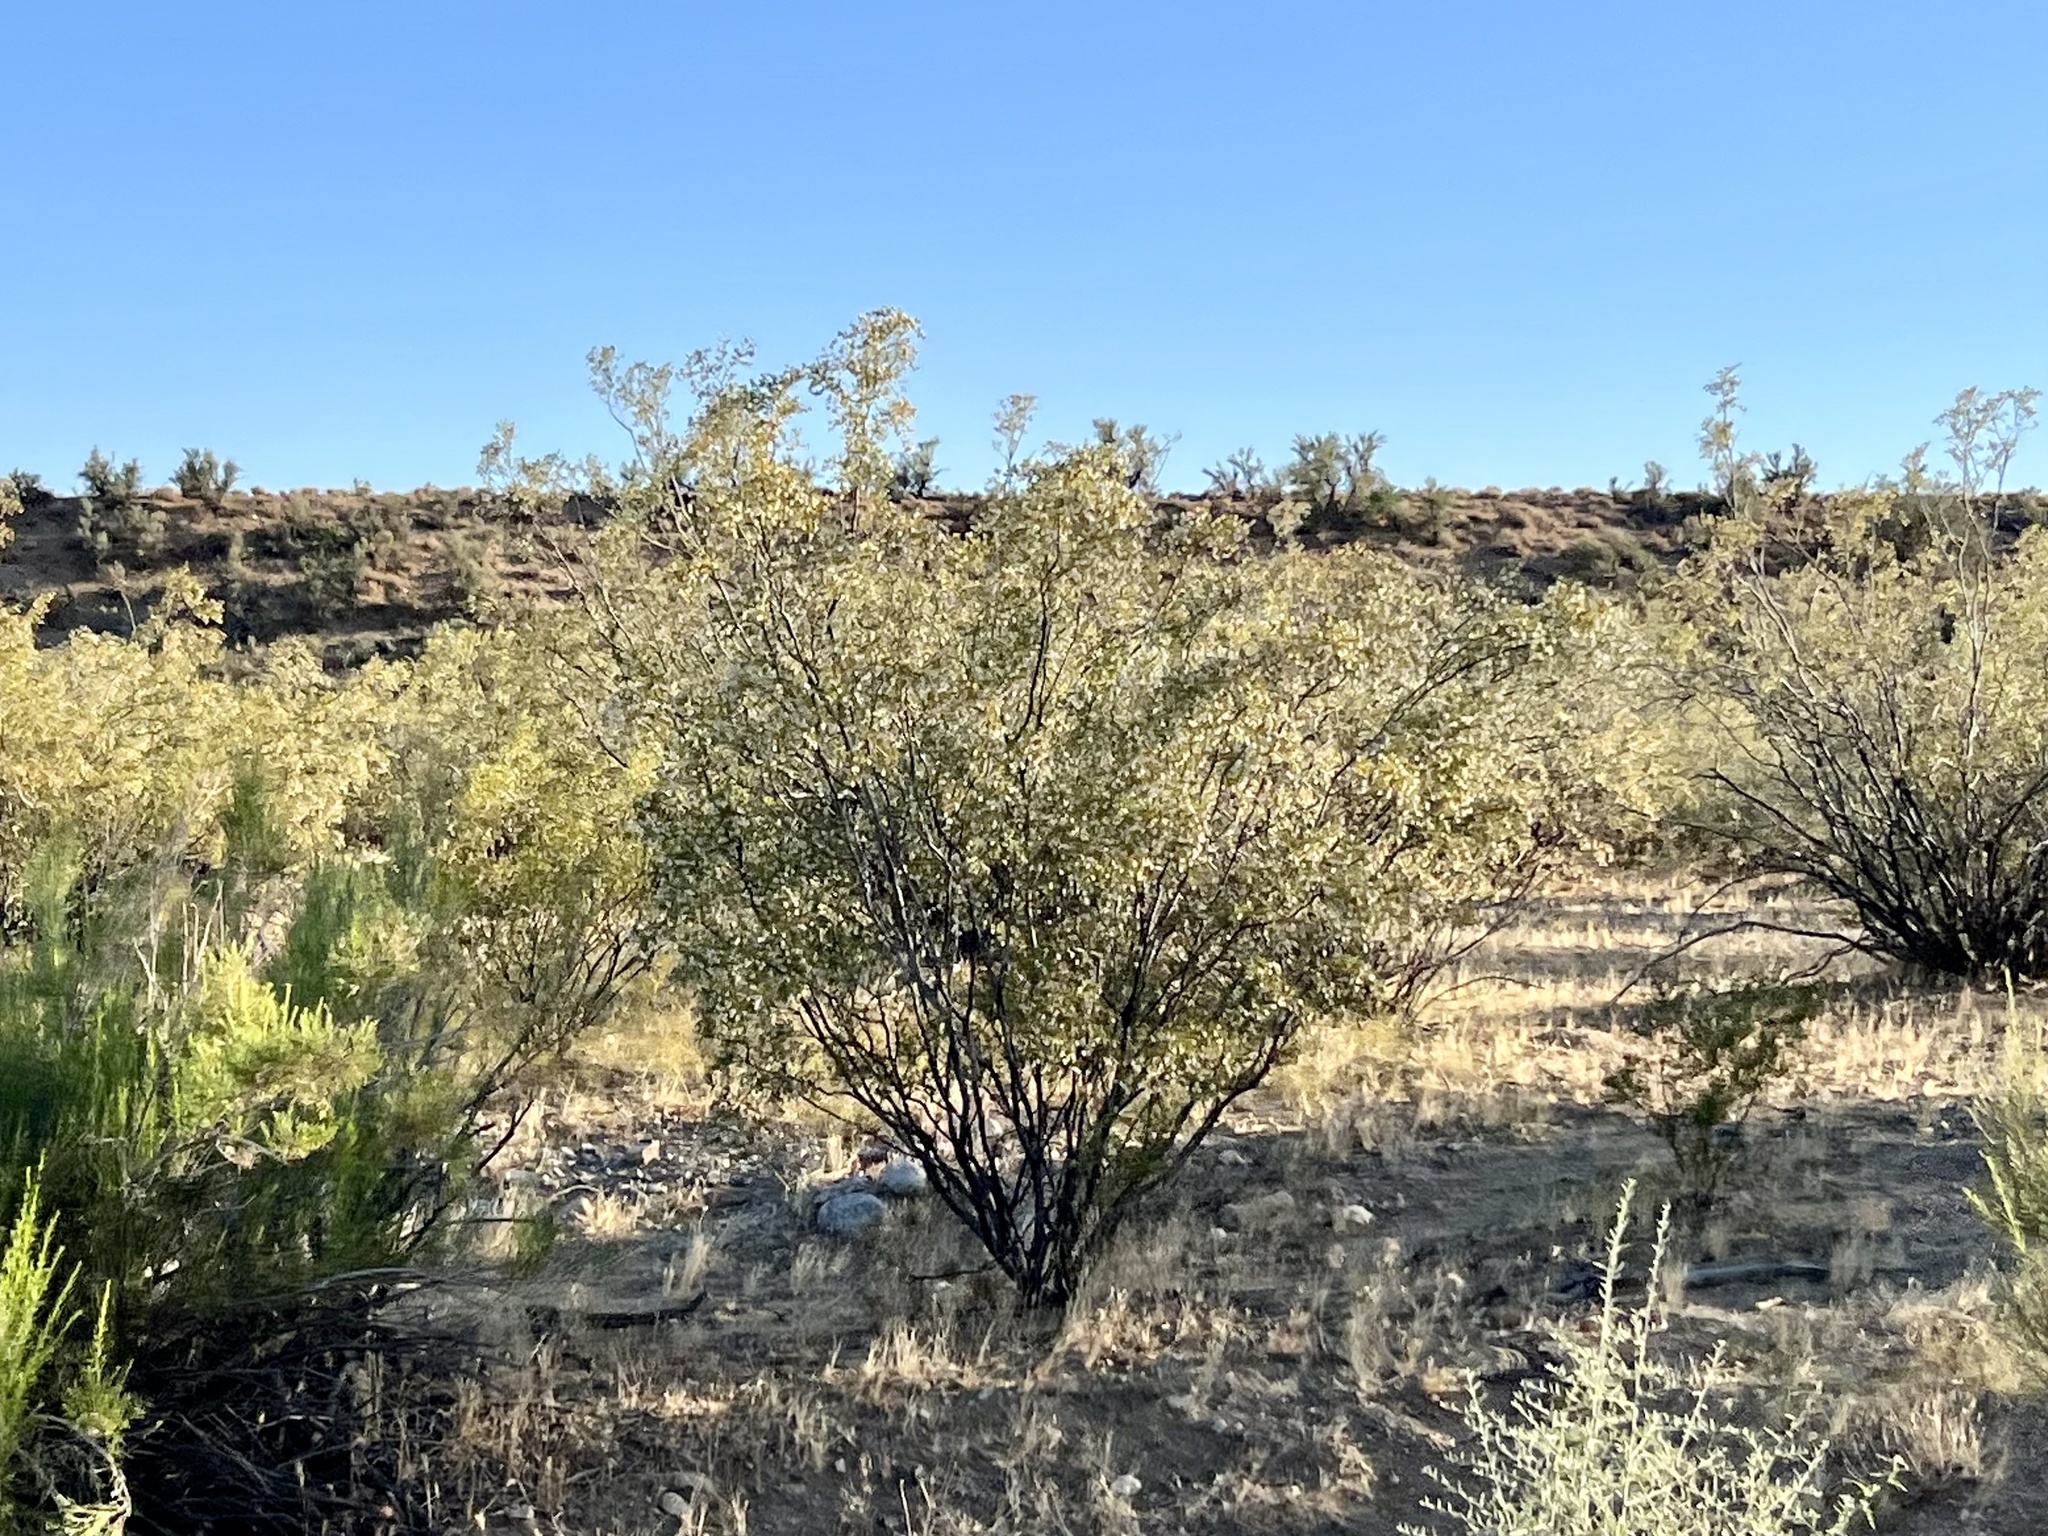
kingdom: Plantae
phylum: Tracheophyta
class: Magnoliopsida
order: Zygophyllales
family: Zygophyllaceae
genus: Larrea
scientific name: Larrea tridentata
